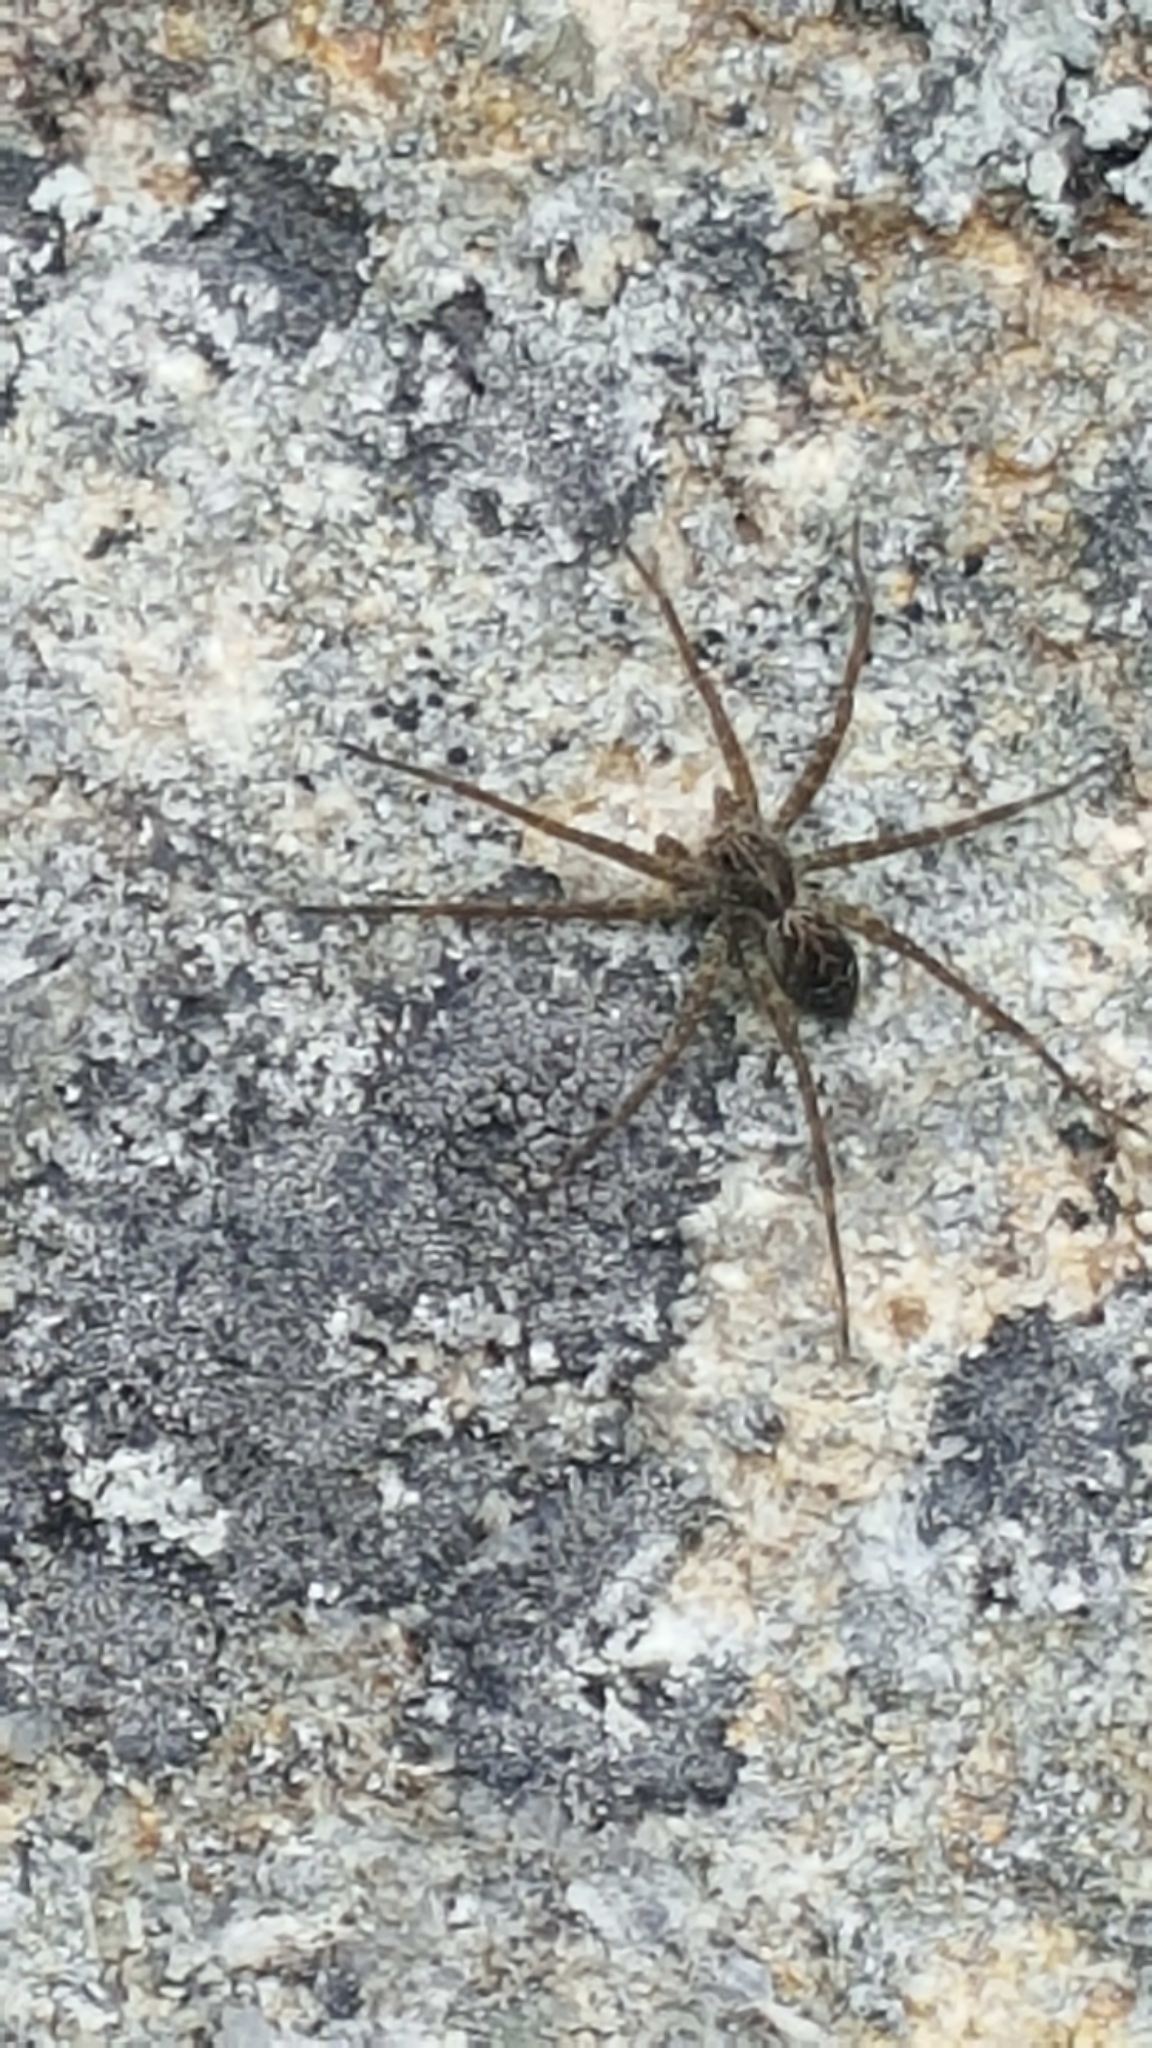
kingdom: Animalia
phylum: Arthropoda
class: Arachnida
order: Araneae
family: Pisauridae
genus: Dolomedes
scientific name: Dolomedes scriptus
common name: Striped fishing spider
